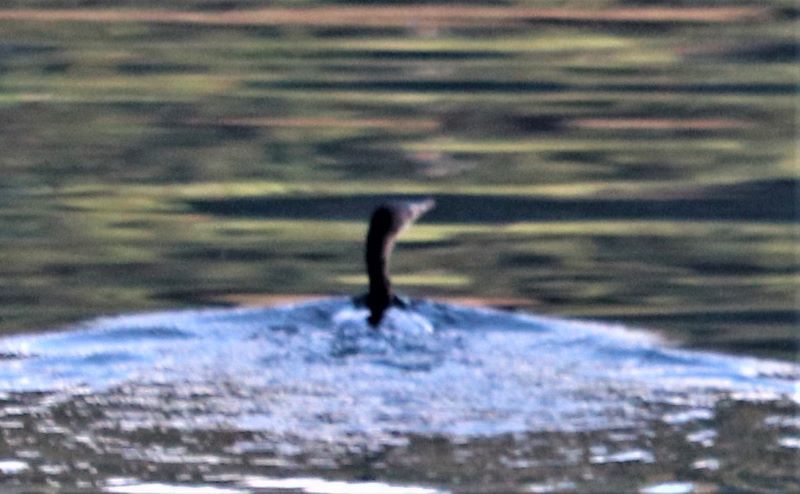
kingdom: Animalia
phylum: Chordata
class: Aves
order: Suliformes
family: Phalacrocoracidae
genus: Microcarbo
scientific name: Microcarbo africanus
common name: Long-tailed cormorant
